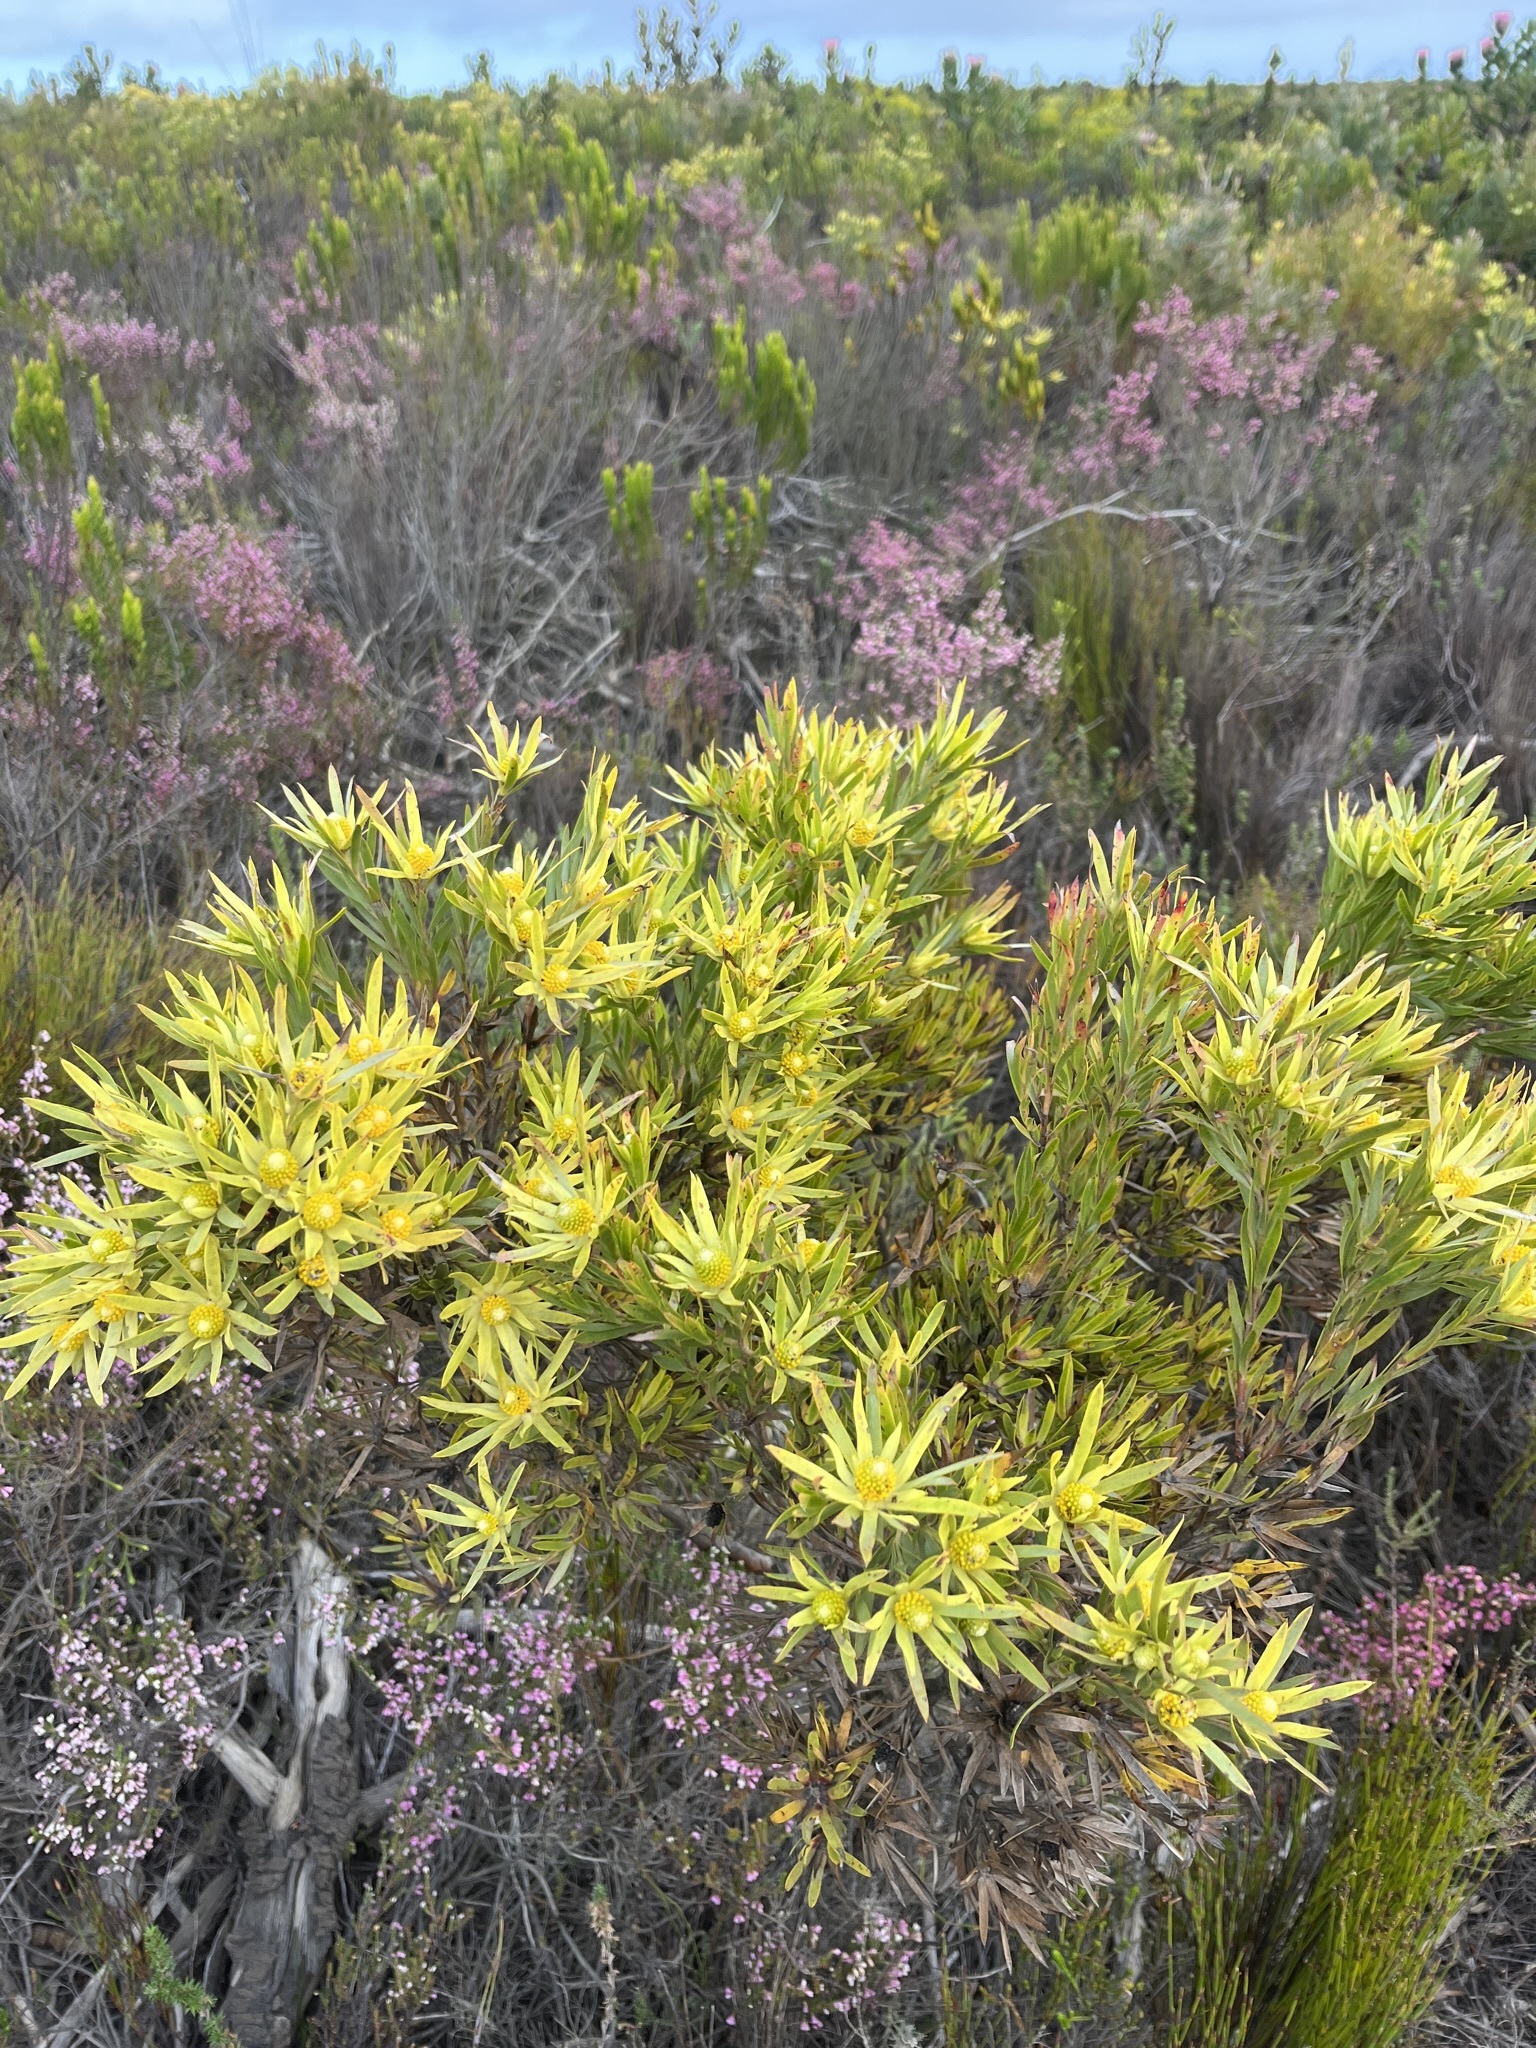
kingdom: Plantae
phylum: Tracheophyta
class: Magnoliopsida
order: Proteales
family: Proteaceae
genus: Leucadendron
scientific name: Leucadendron xanthoconus
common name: Sickle-leaf conebush
